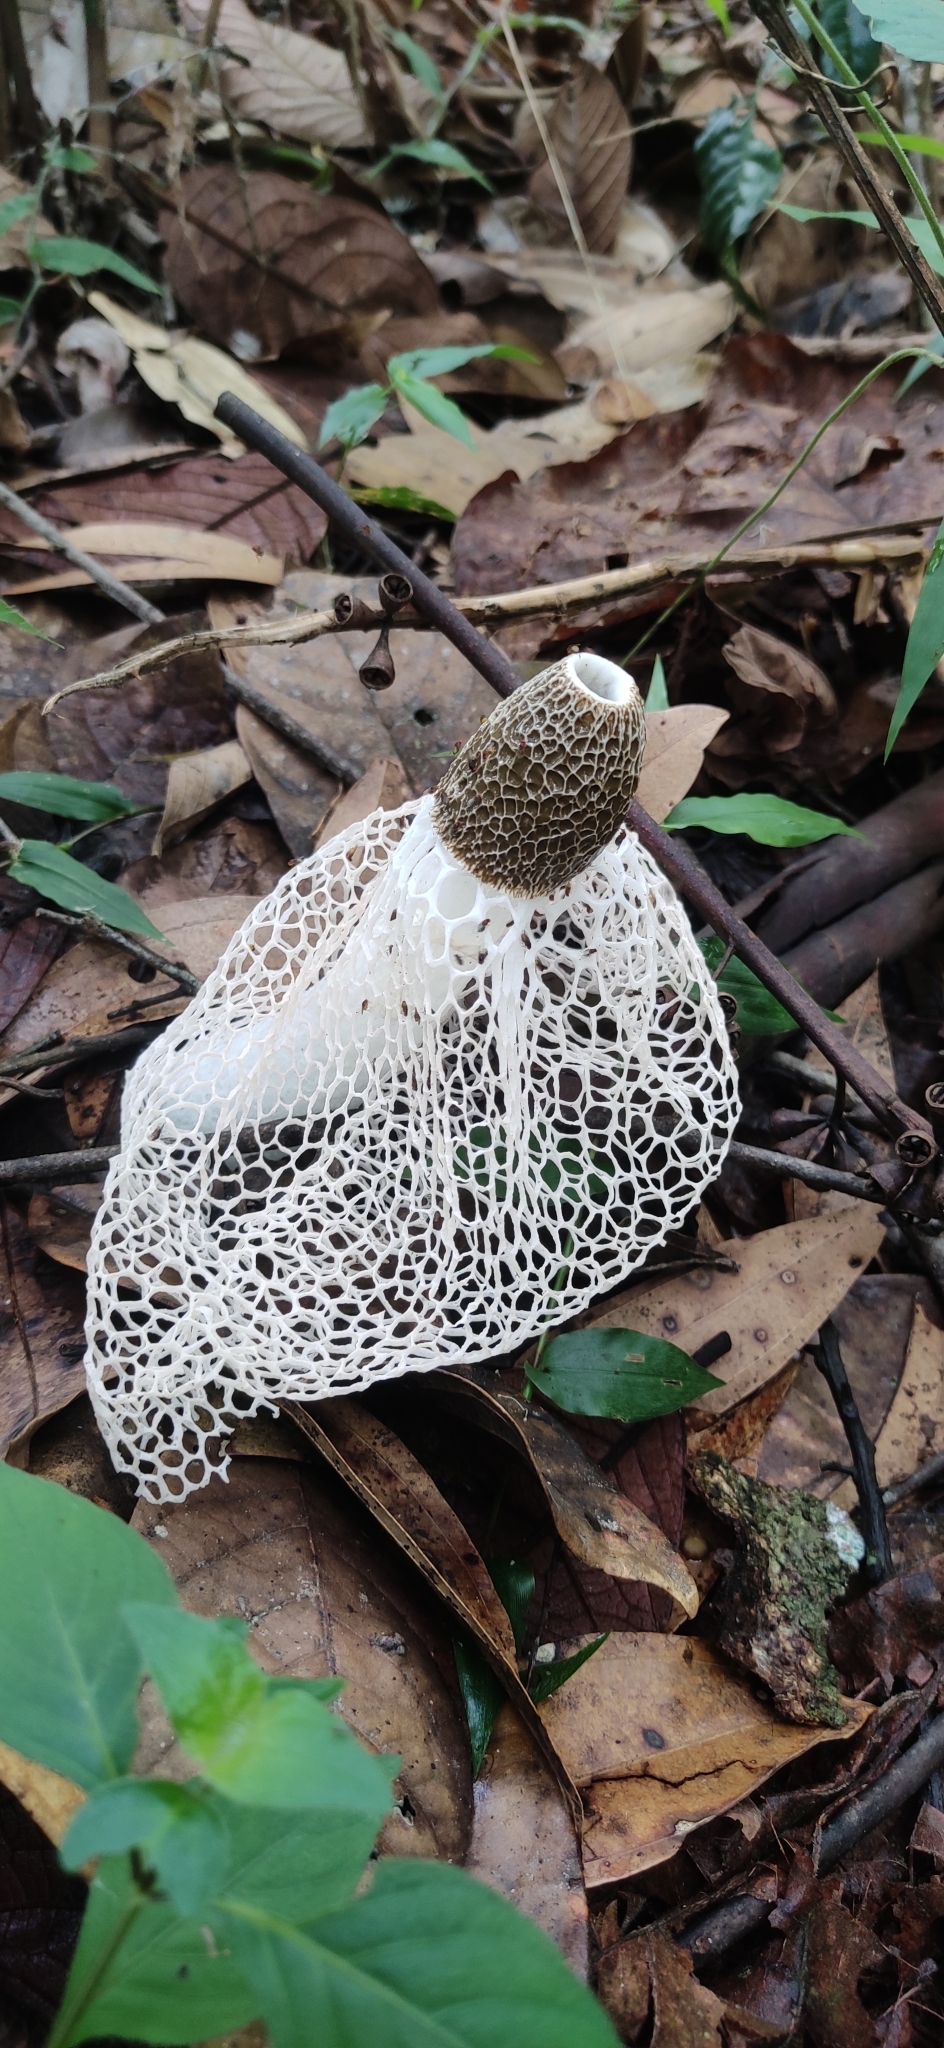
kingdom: Fungi
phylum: Basidiomycota
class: Agaricomycetes
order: Phallales
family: Phallaceae
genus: Phallus
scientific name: Phallus indusiatus
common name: Bridal veil stinkhorn
